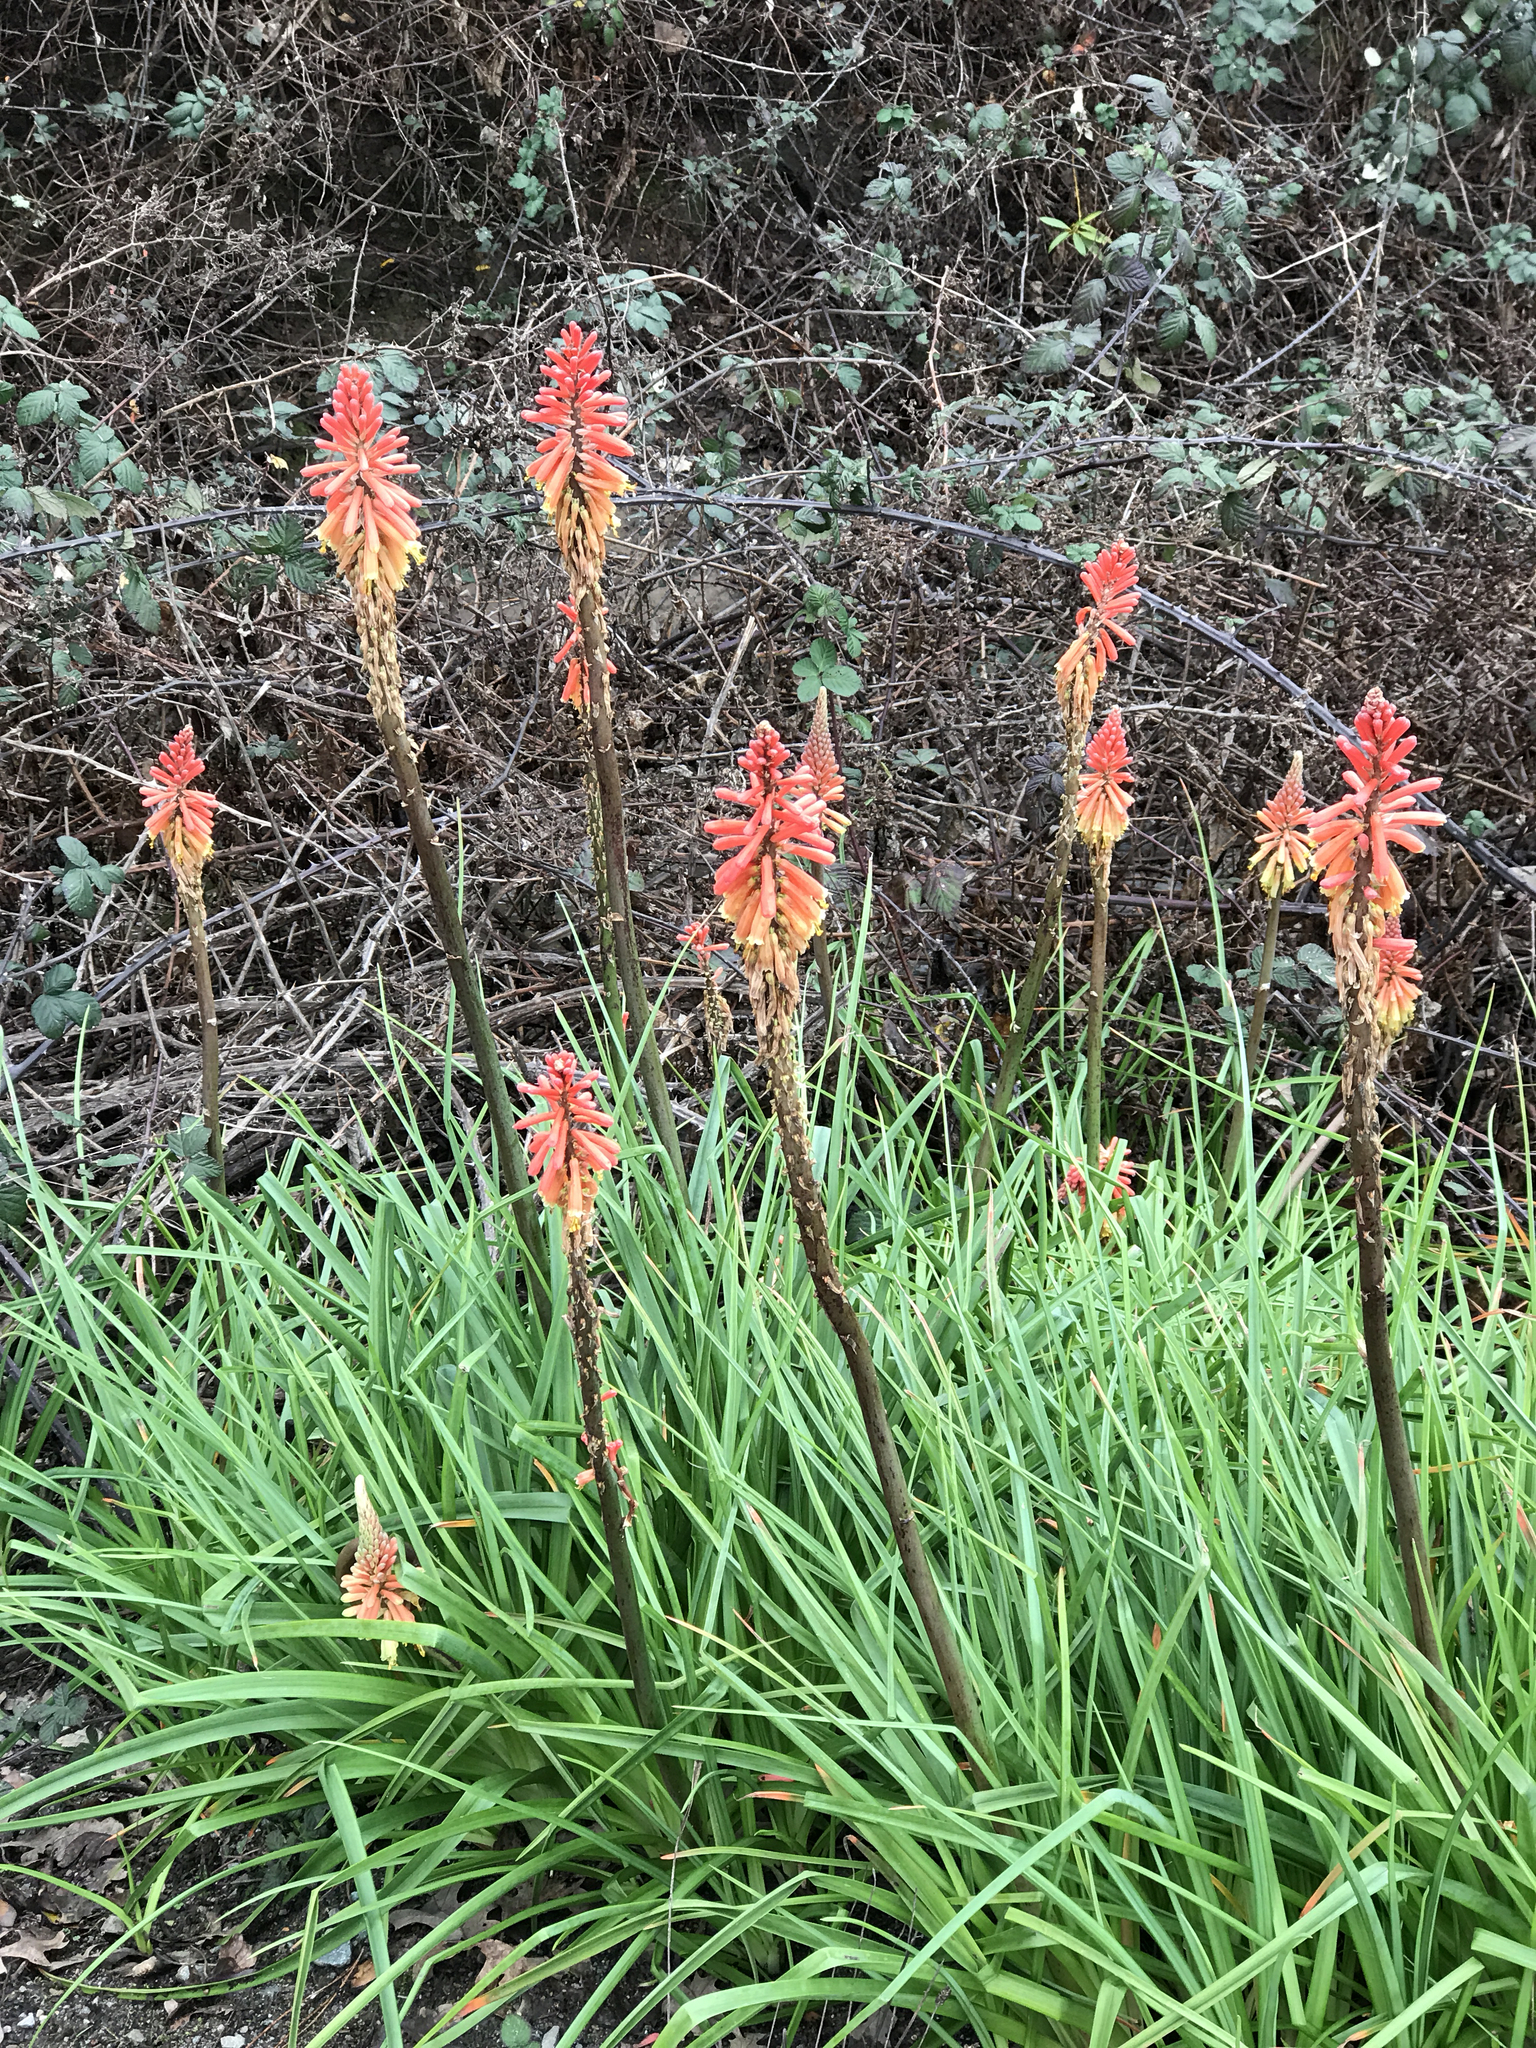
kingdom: Plantae
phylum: Tracheophyta
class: Liliopsida
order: Asparagales
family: Asphodelaceae
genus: Kniphofia
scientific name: Kniphofia praecox
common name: Greater red-hot-poker
